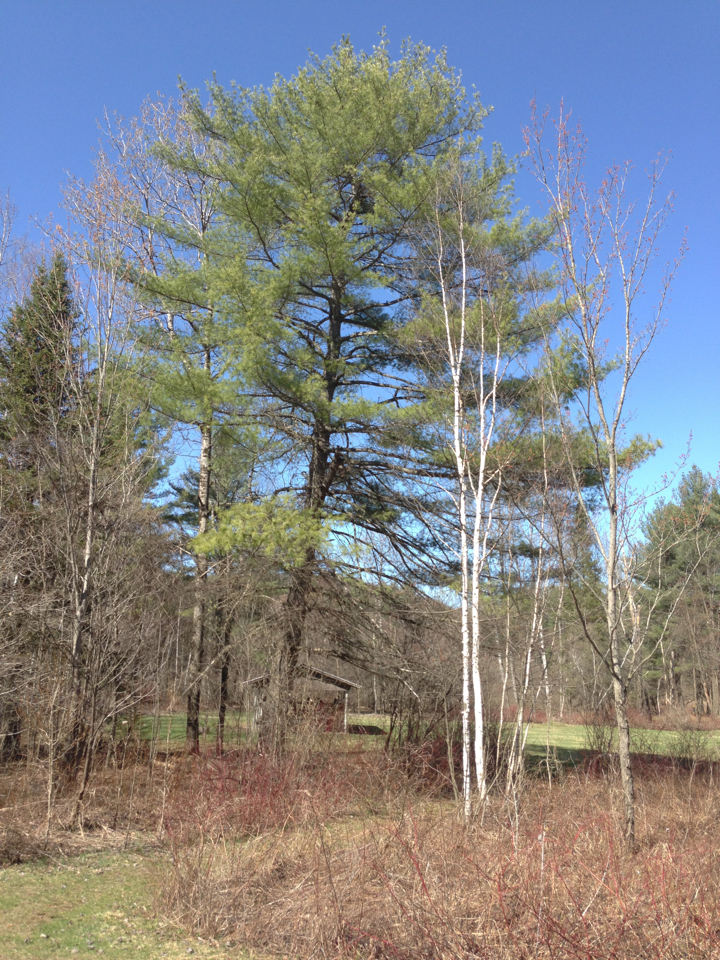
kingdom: Plantae
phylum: Tracheophyta
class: Pinopsida
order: Pinales
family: Pinaceae
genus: Pinus
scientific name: Pinus strobus
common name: Weymouth pine
